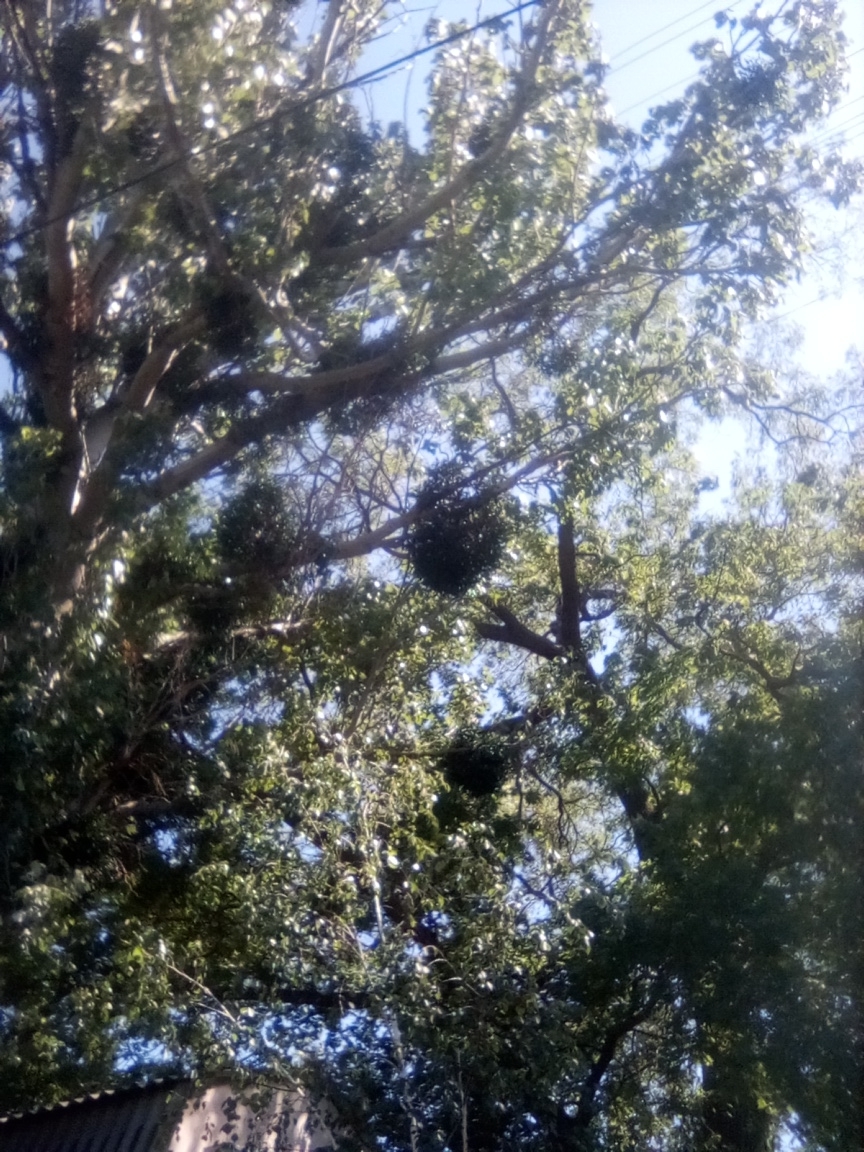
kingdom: Plantae
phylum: Tracheophyta
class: Magnoliopsida
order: Santalales
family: Viscaceae
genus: Viscum
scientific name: Viscum album
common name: Mistletoe
